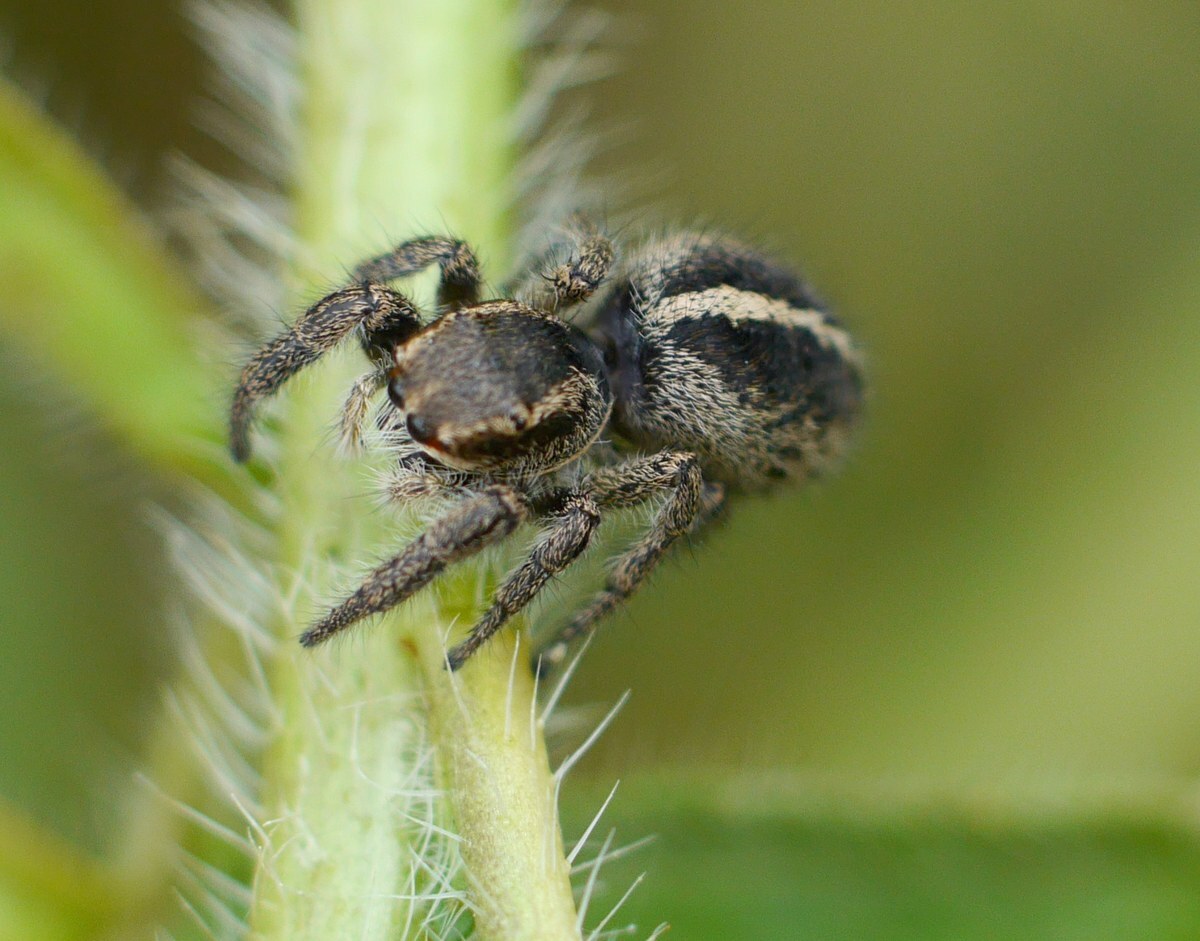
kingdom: Animalia
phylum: Arthropoda
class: Arachnida
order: Araneae
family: Salticidae
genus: Pellenes
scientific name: Pellenes seriatus
